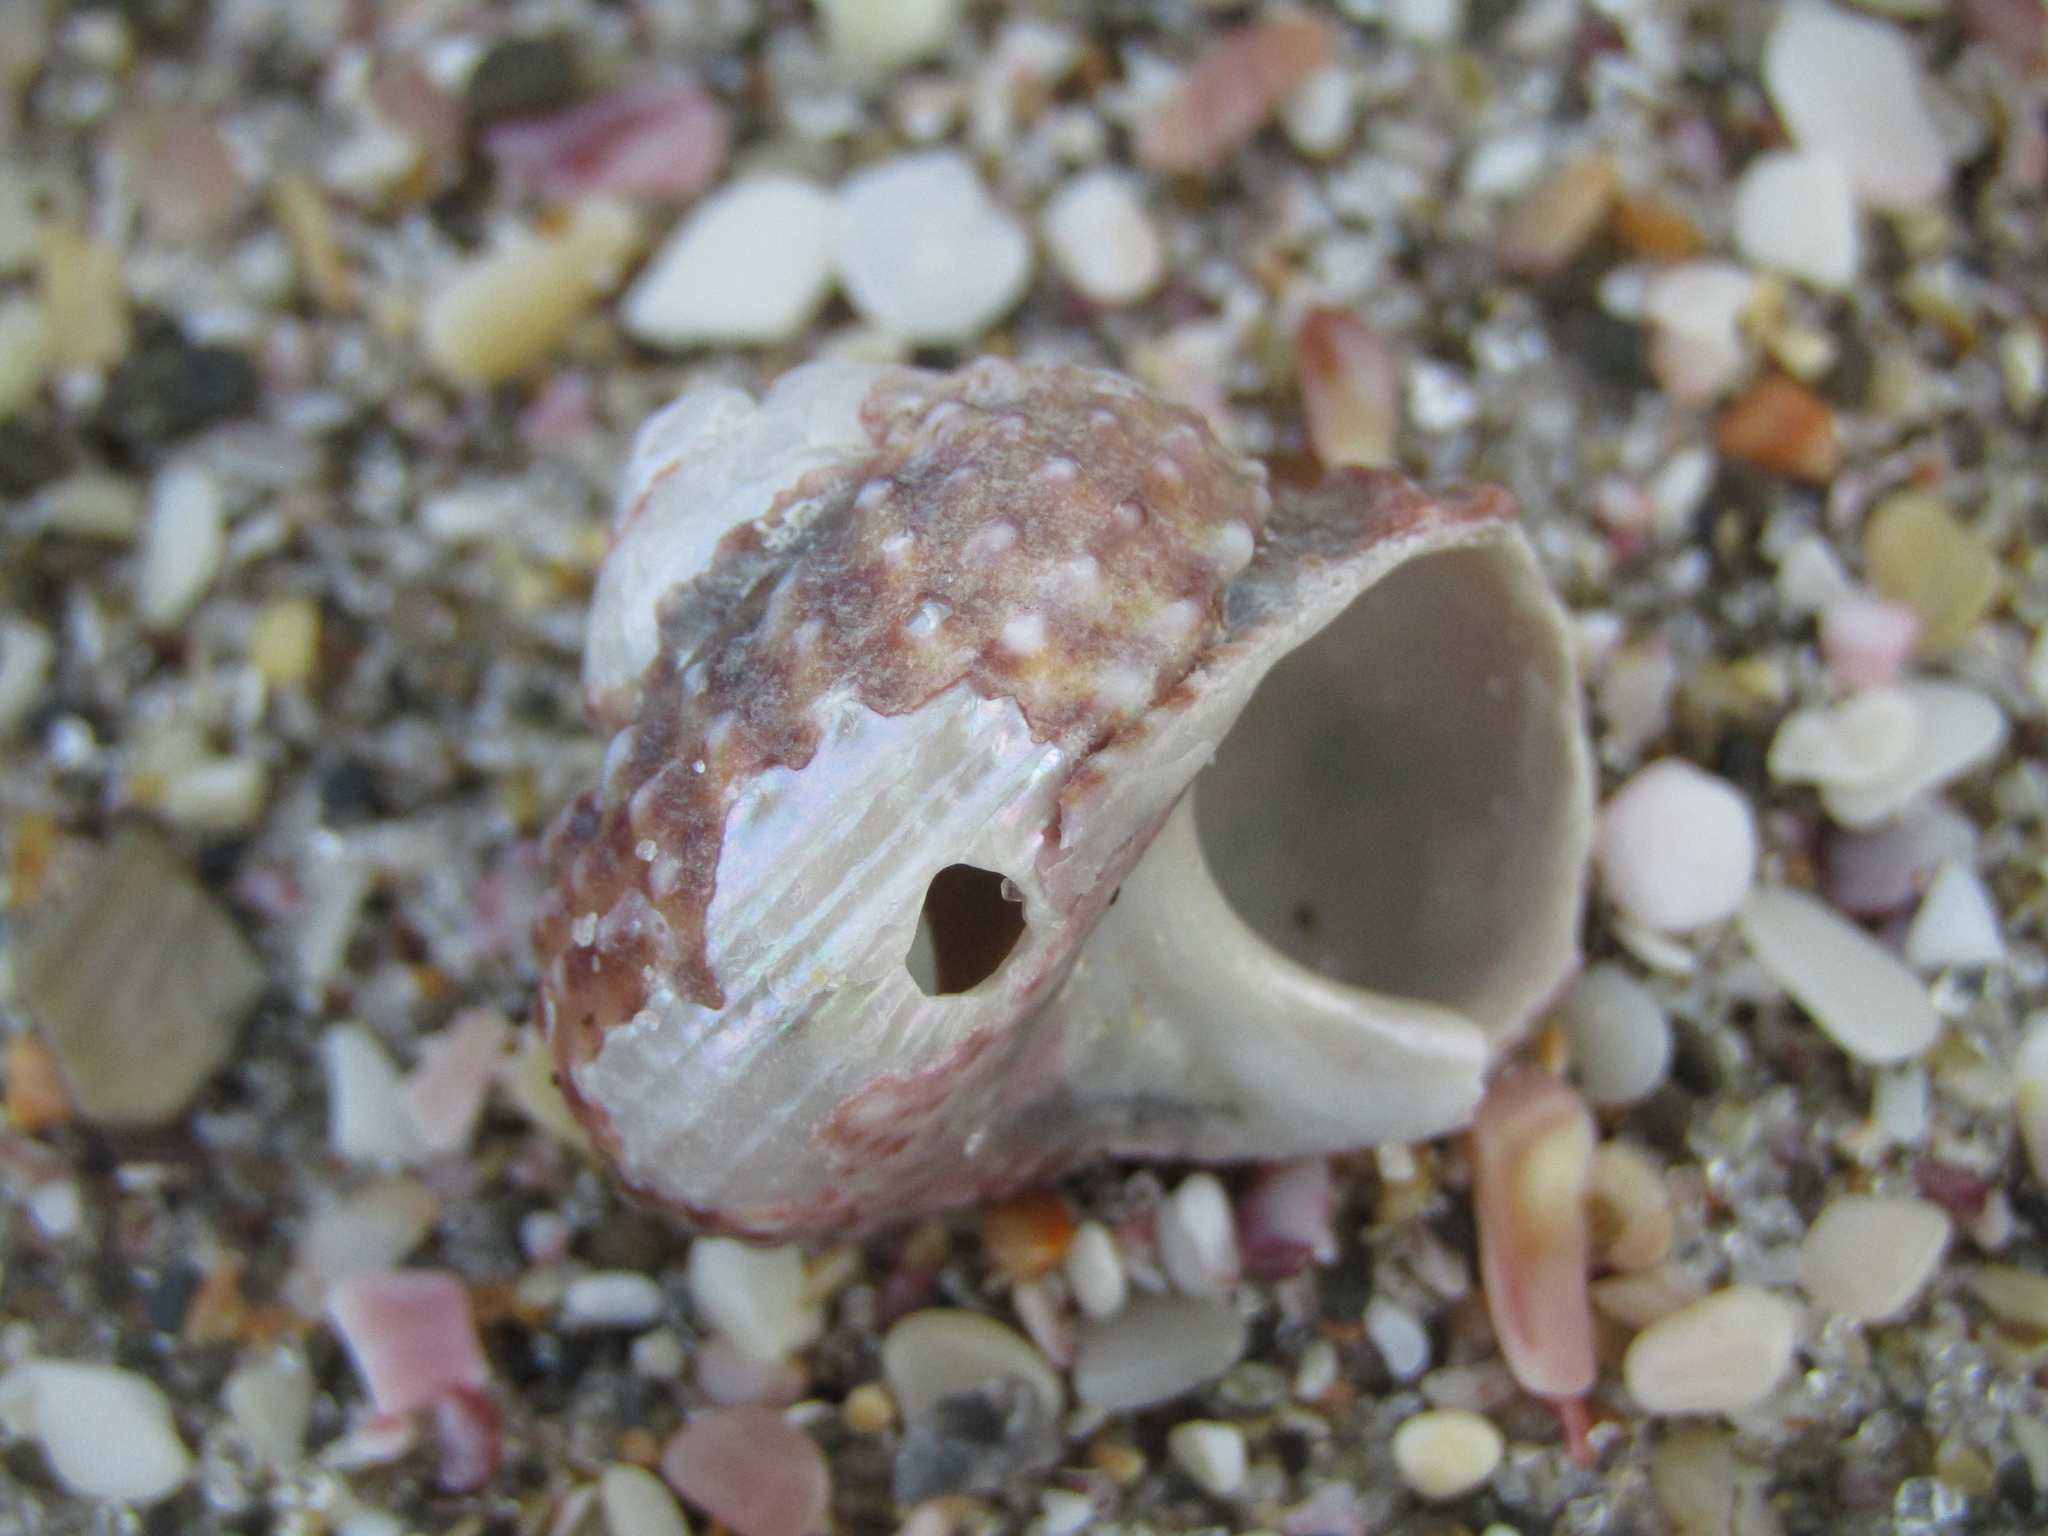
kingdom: Animalia
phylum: Mollusca
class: Gastropoda
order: Trochida
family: Turbinidae
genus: Modelia
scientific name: Modelia granosa
